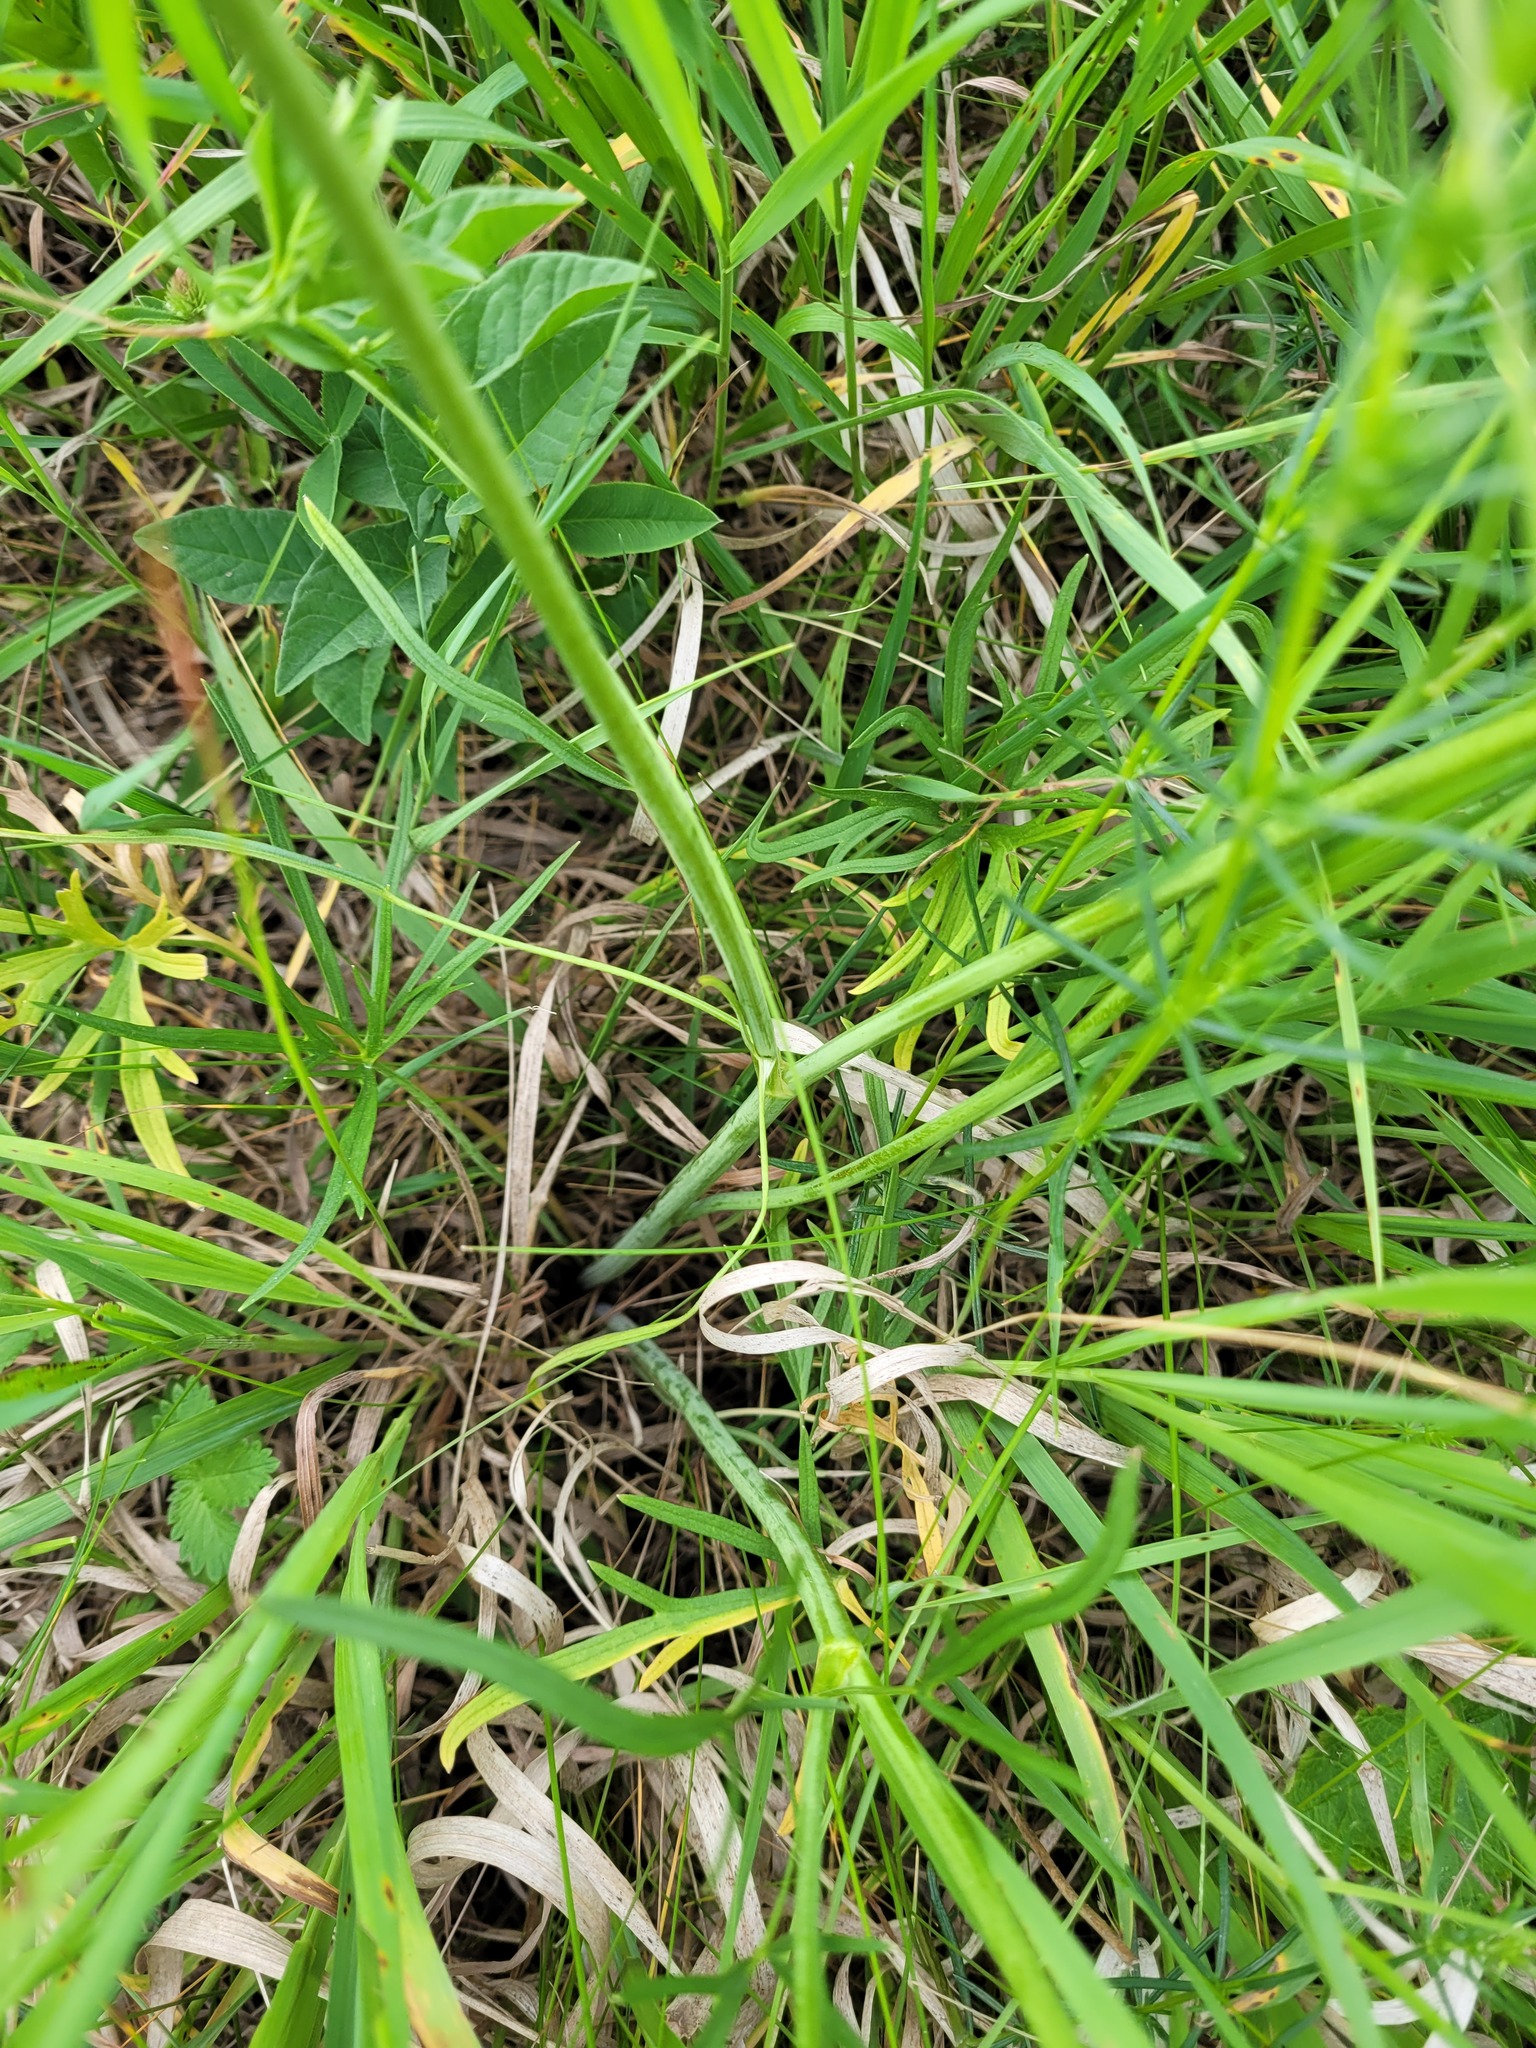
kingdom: Plantae
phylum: Tracheophyta
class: Magnoliopsida
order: Ranunculales
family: Ranunculaceae
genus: Ranunculus
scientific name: Ranunculus acris
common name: Meadow buttercup
